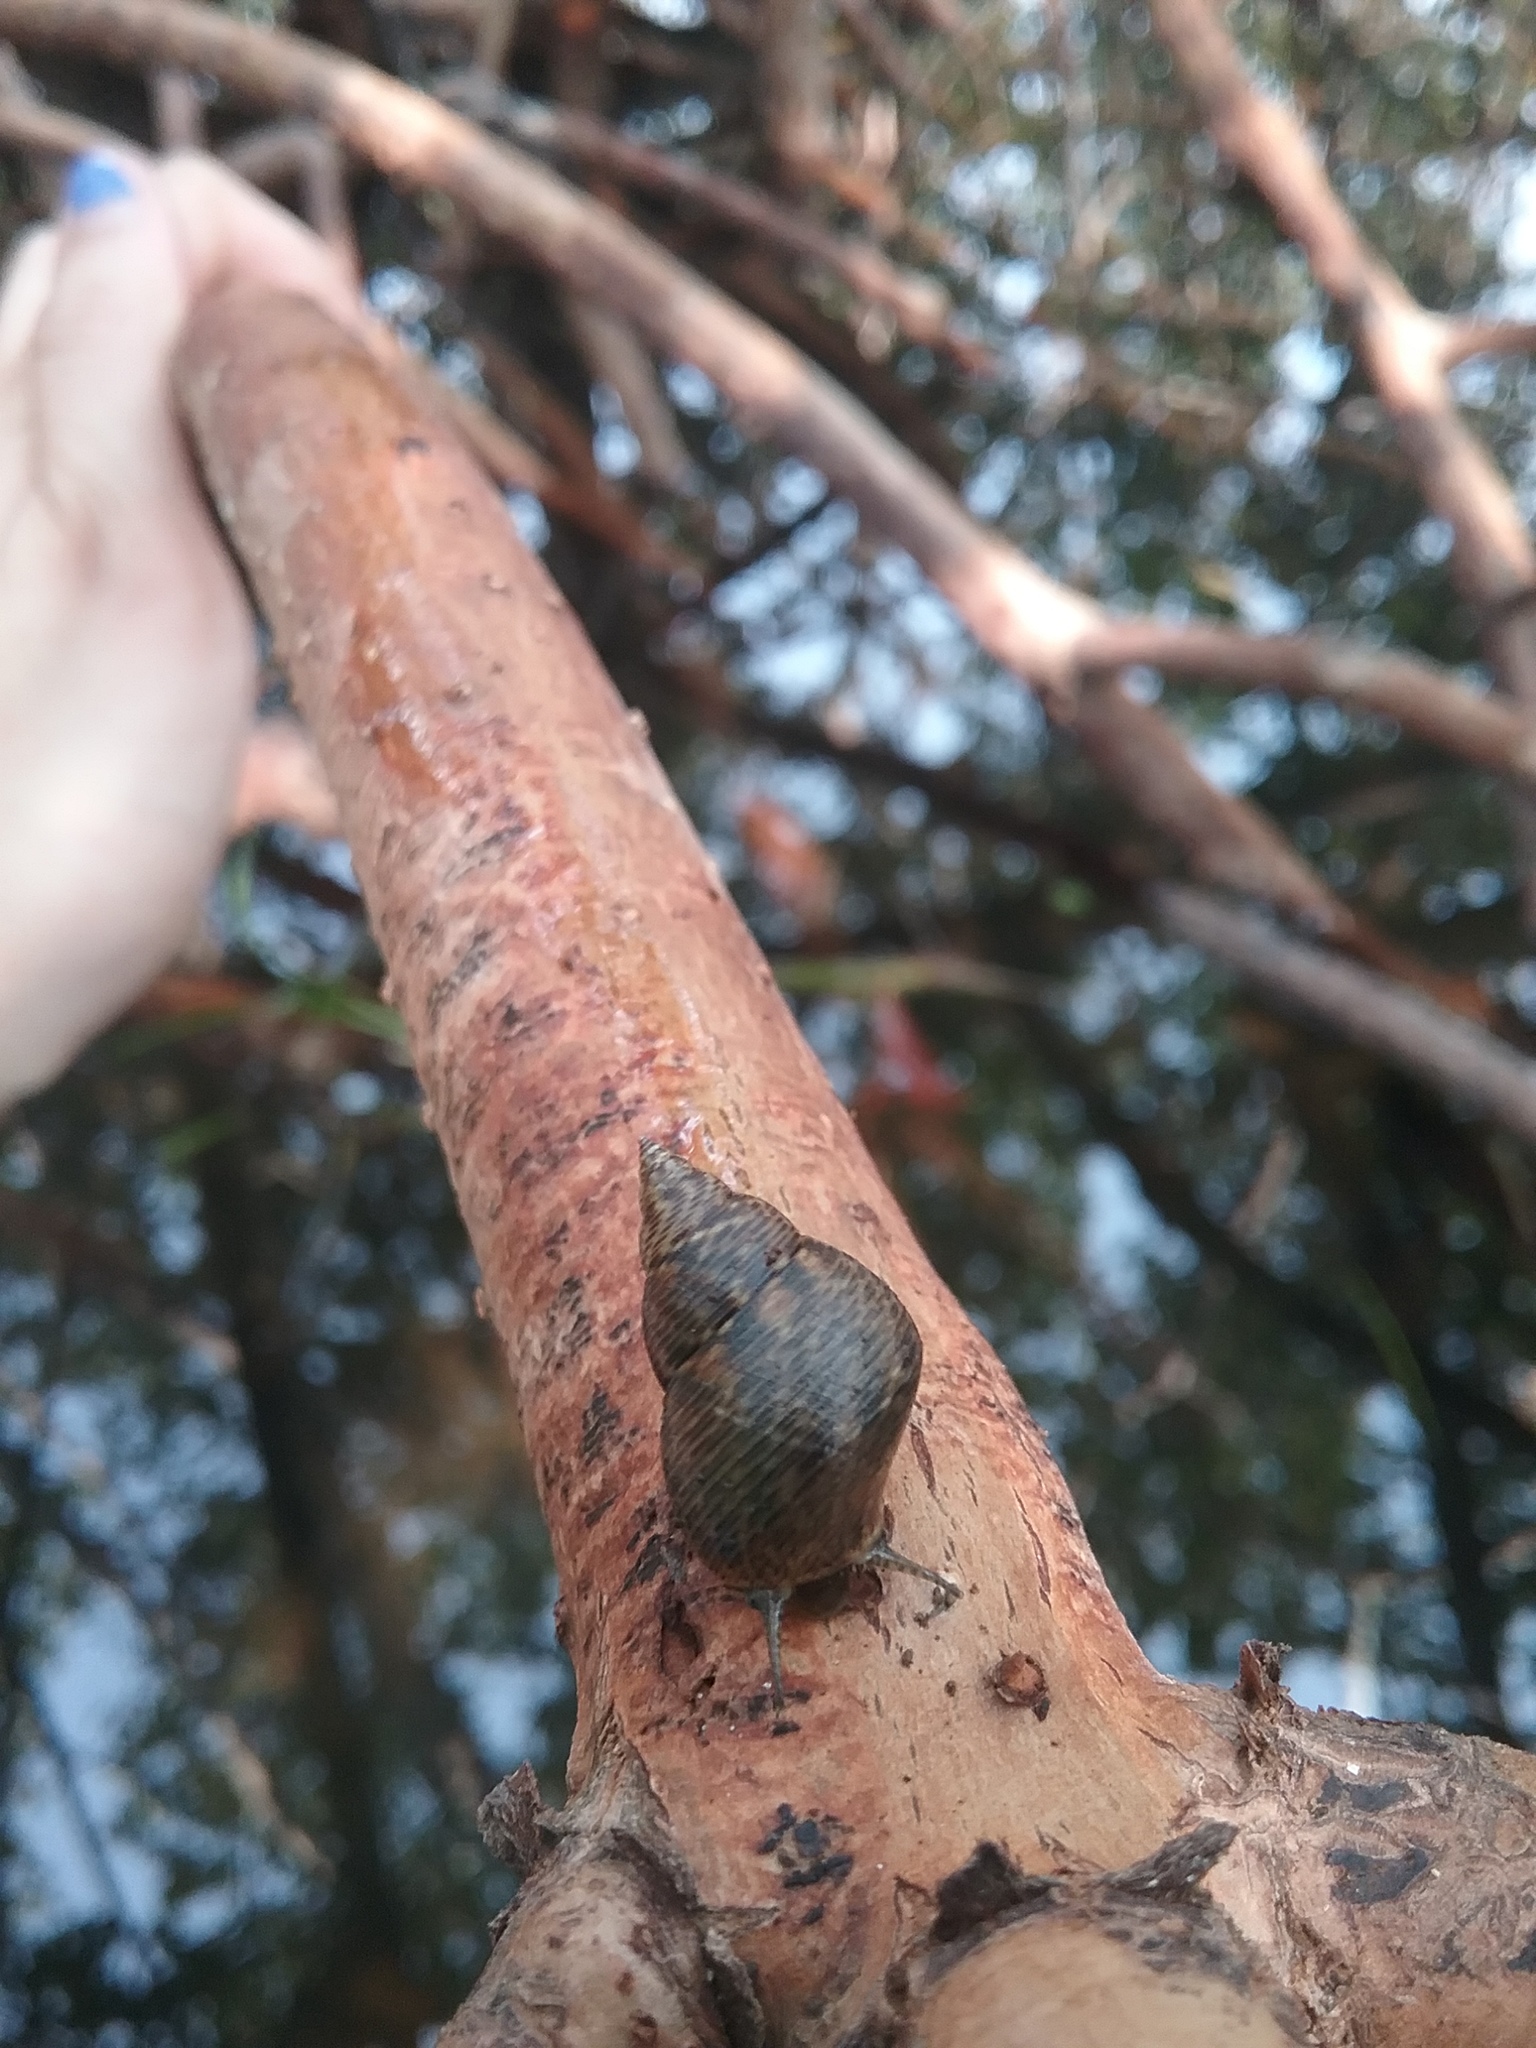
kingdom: Animalia
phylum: Mollusca
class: Gastropoda
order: Littorinimorpha
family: Littorinidae
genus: Littoraria
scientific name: Littoraria angulifera
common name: Mangrove periwinkle
